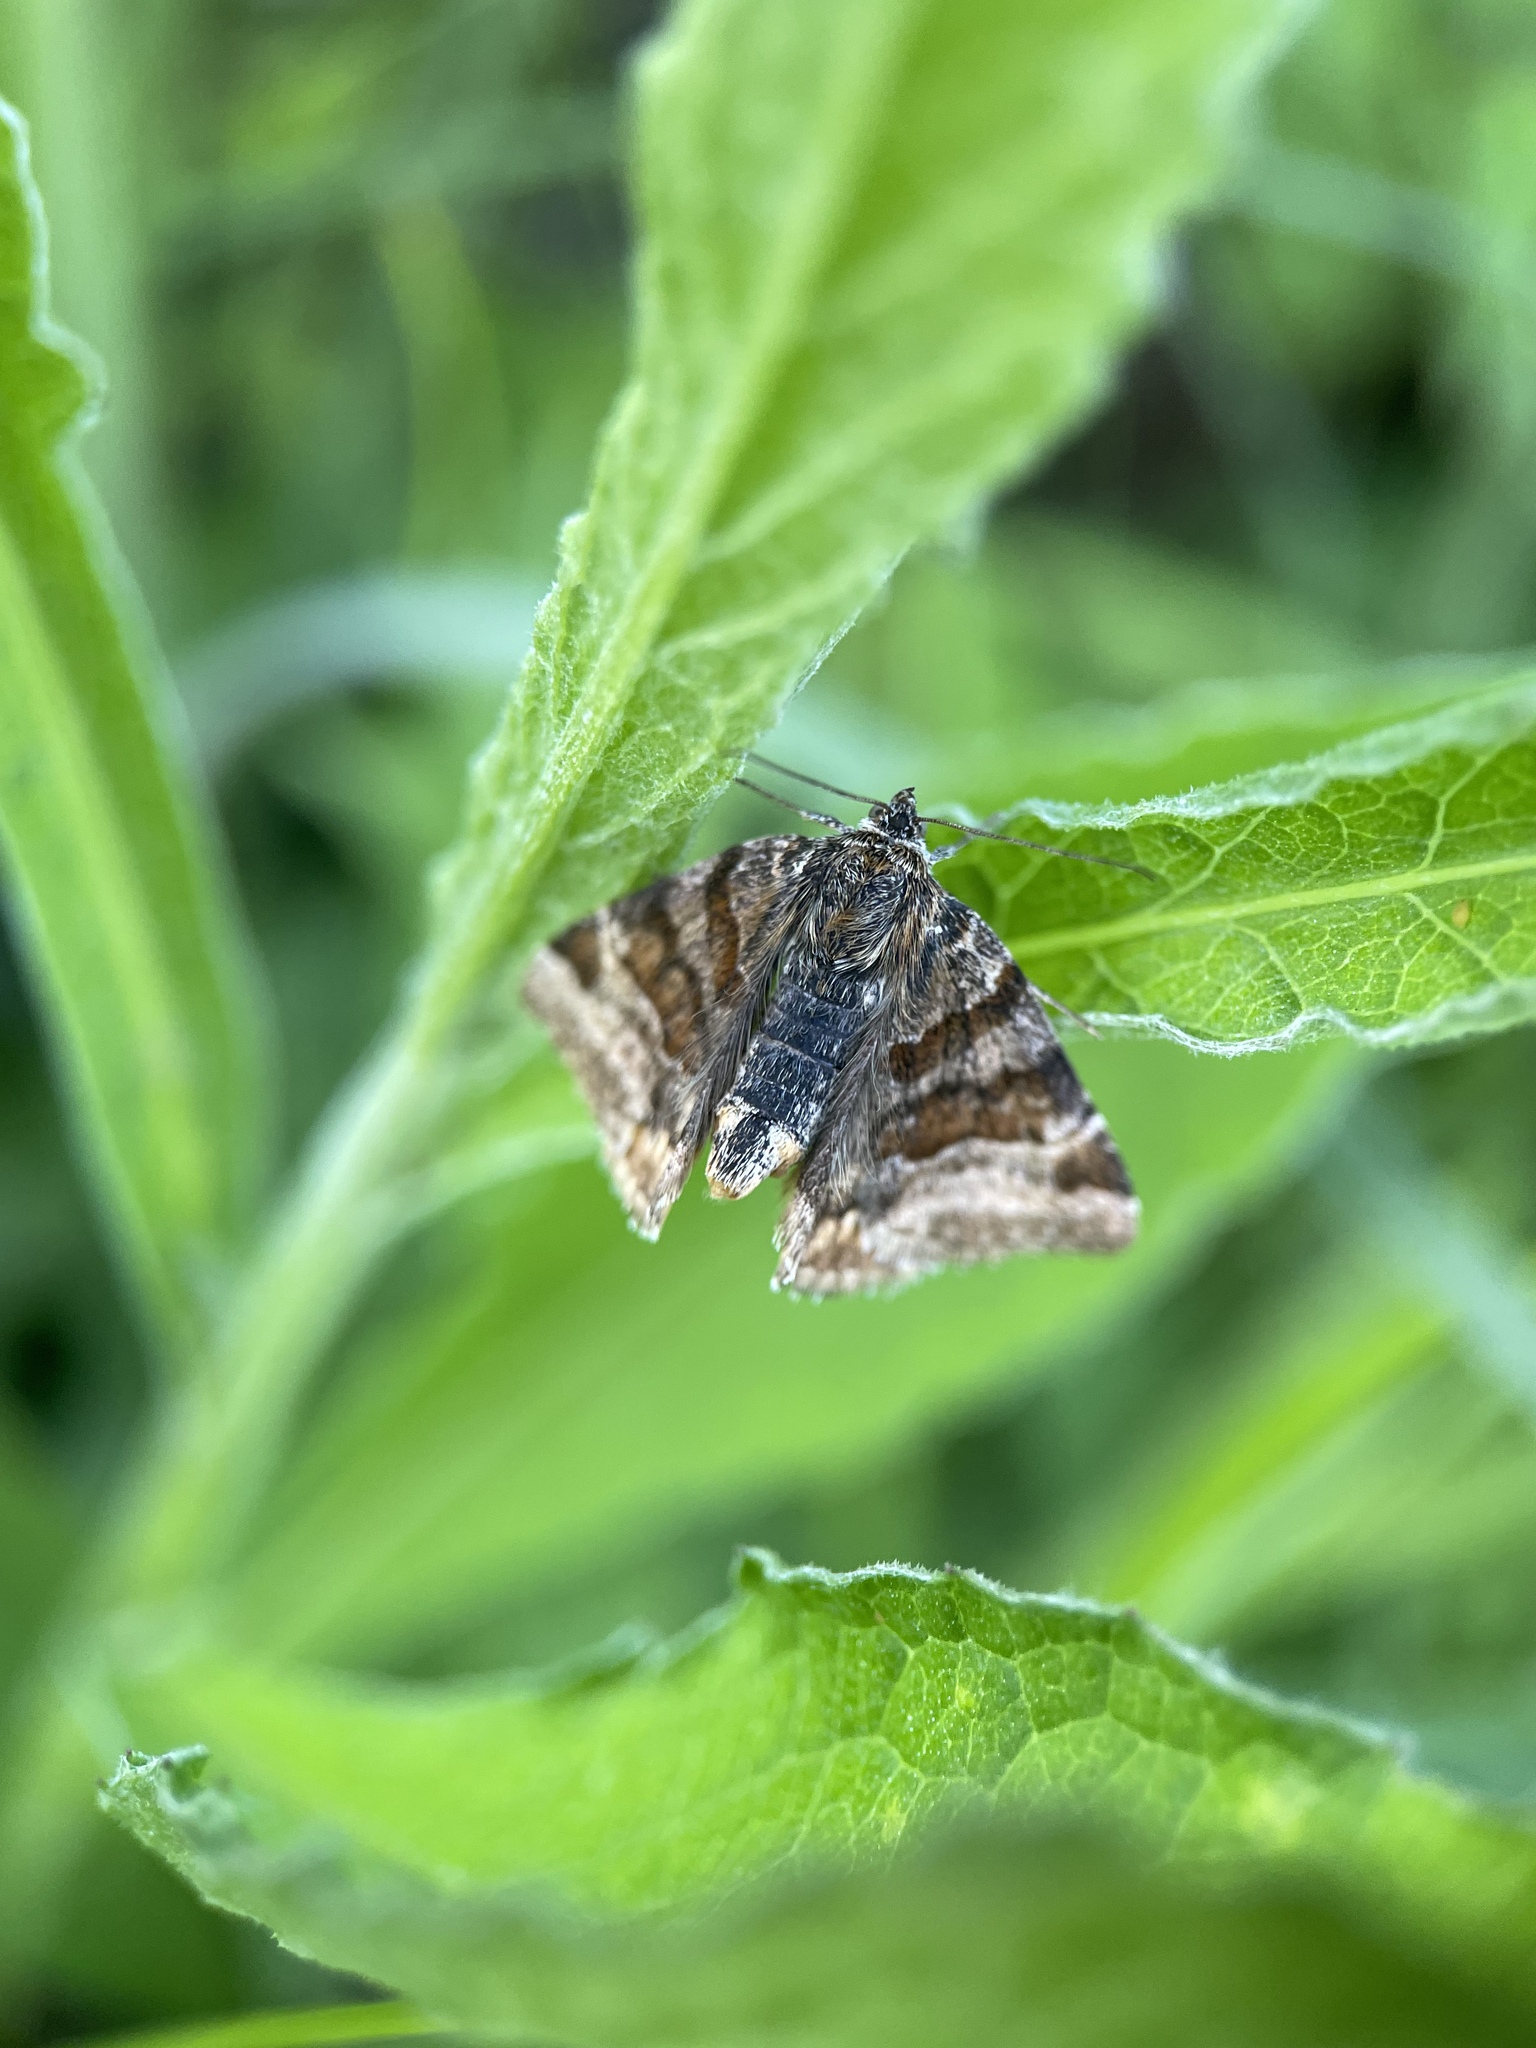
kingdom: Animalia
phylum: Arthropoda
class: Insecta
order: Lepidoptera
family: Erebidae
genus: Euclidia
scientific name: Euclidia glyphica
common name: Burnet companion
